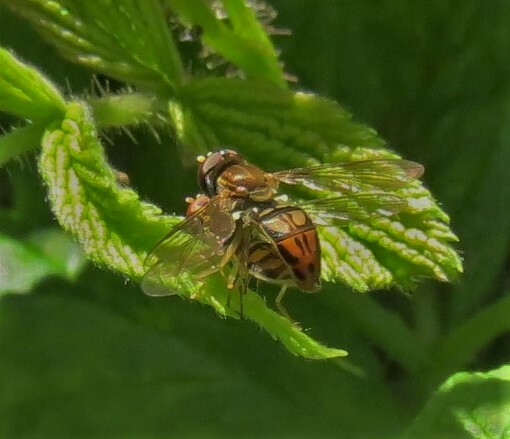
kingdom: Animalia
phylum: Arthropoda
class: Insecta
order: Diptera
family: Syrphidae
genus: Toxomerus
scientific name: Toxomerus marginatus
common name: Syrphid fly
